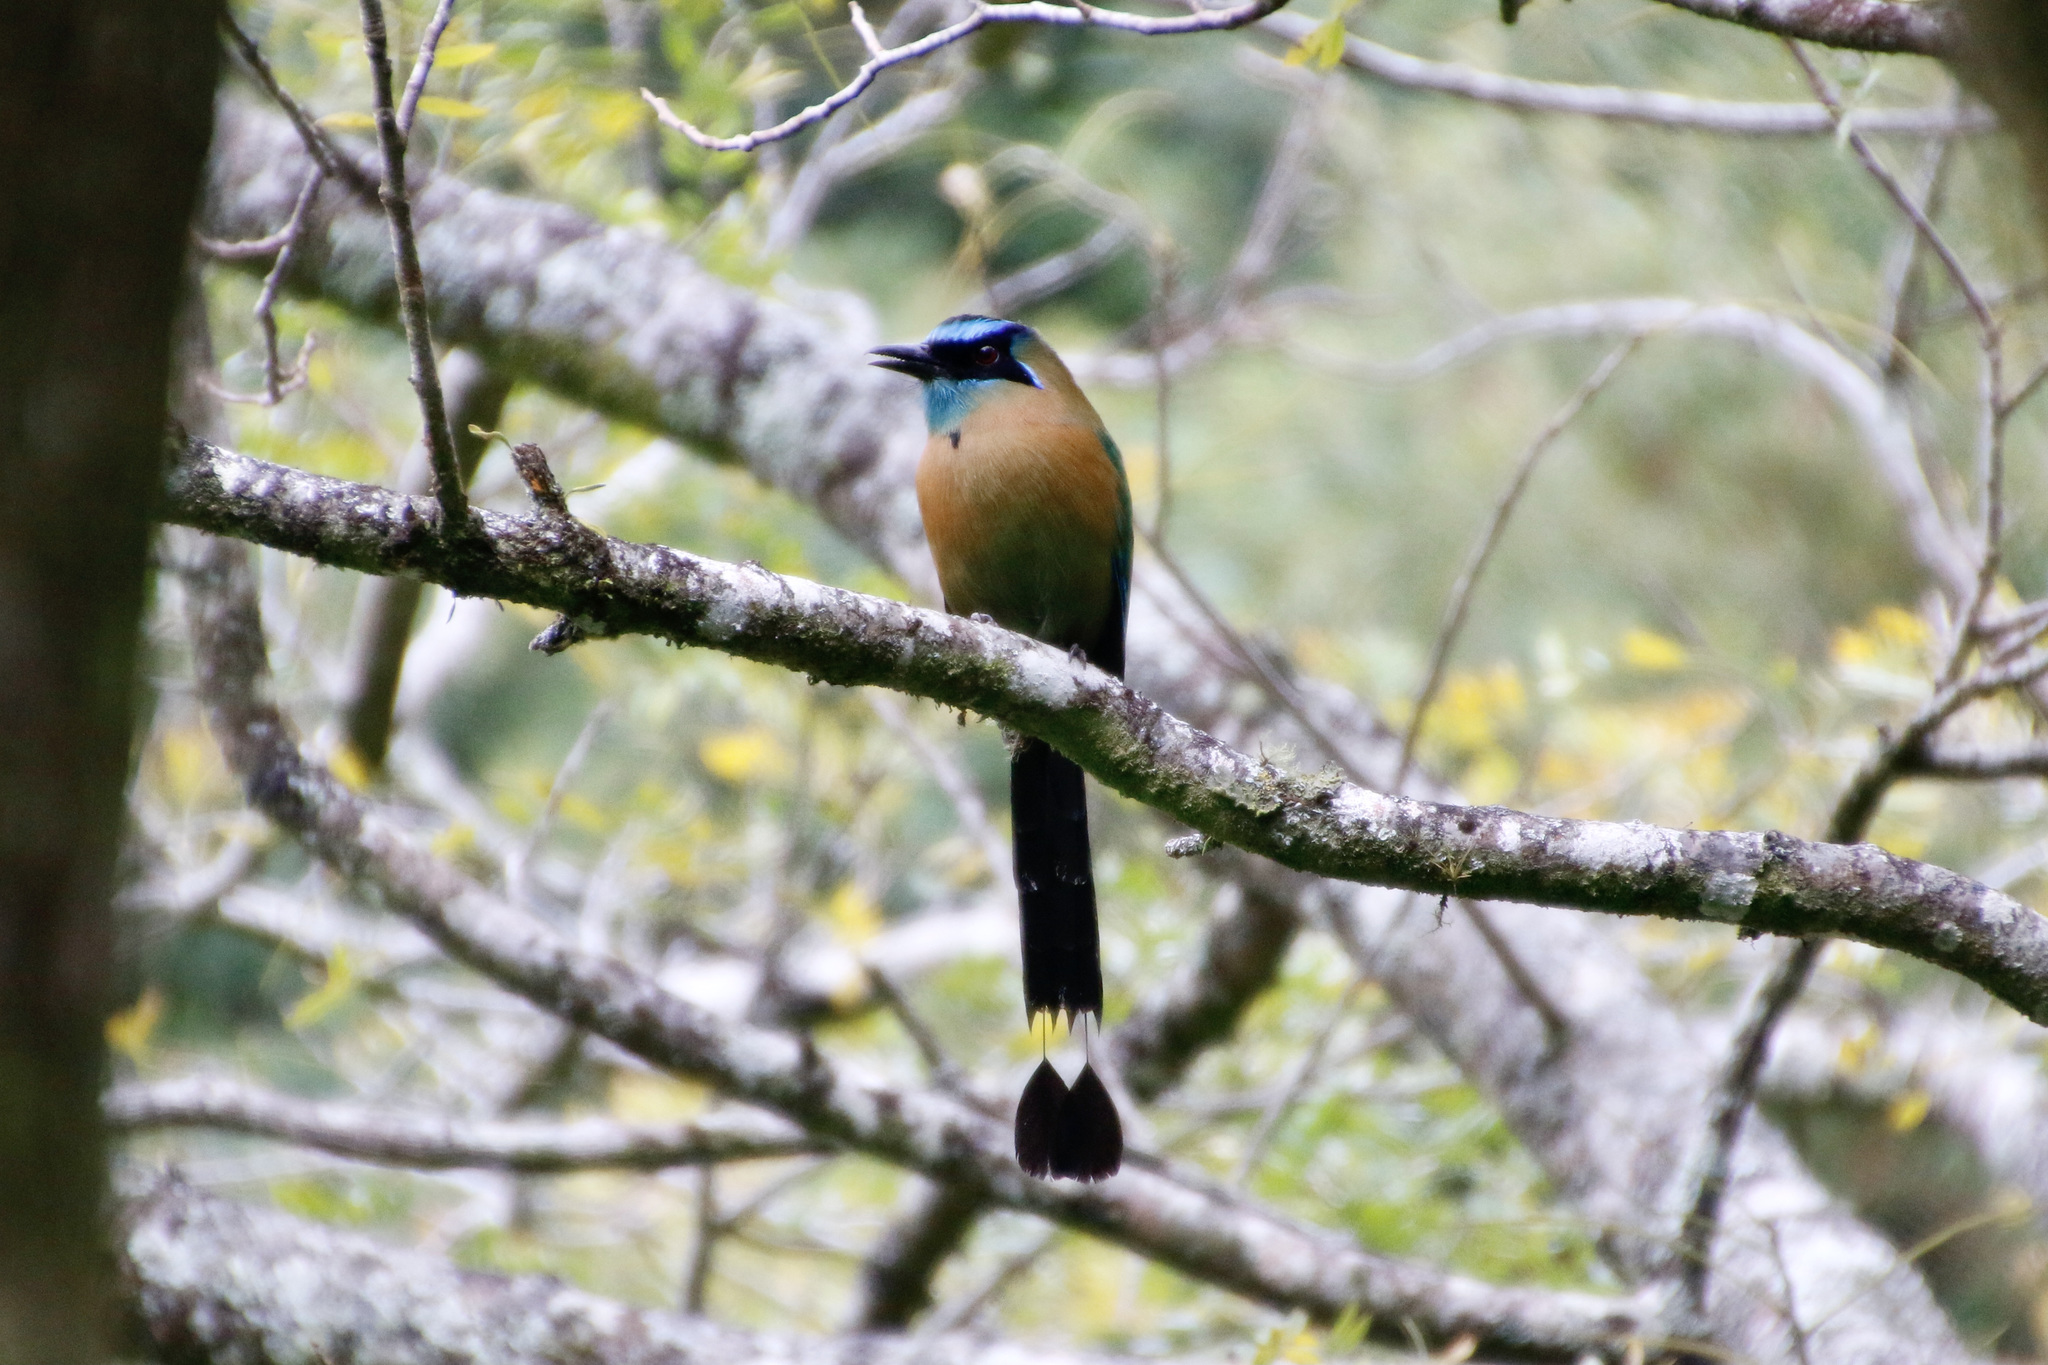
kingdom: Animalia
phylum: Chordata
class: Aves
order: Coraciiformes
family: Momotidae
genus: Momotus
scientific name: Momotus lessonii
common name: Lesson's motmot
